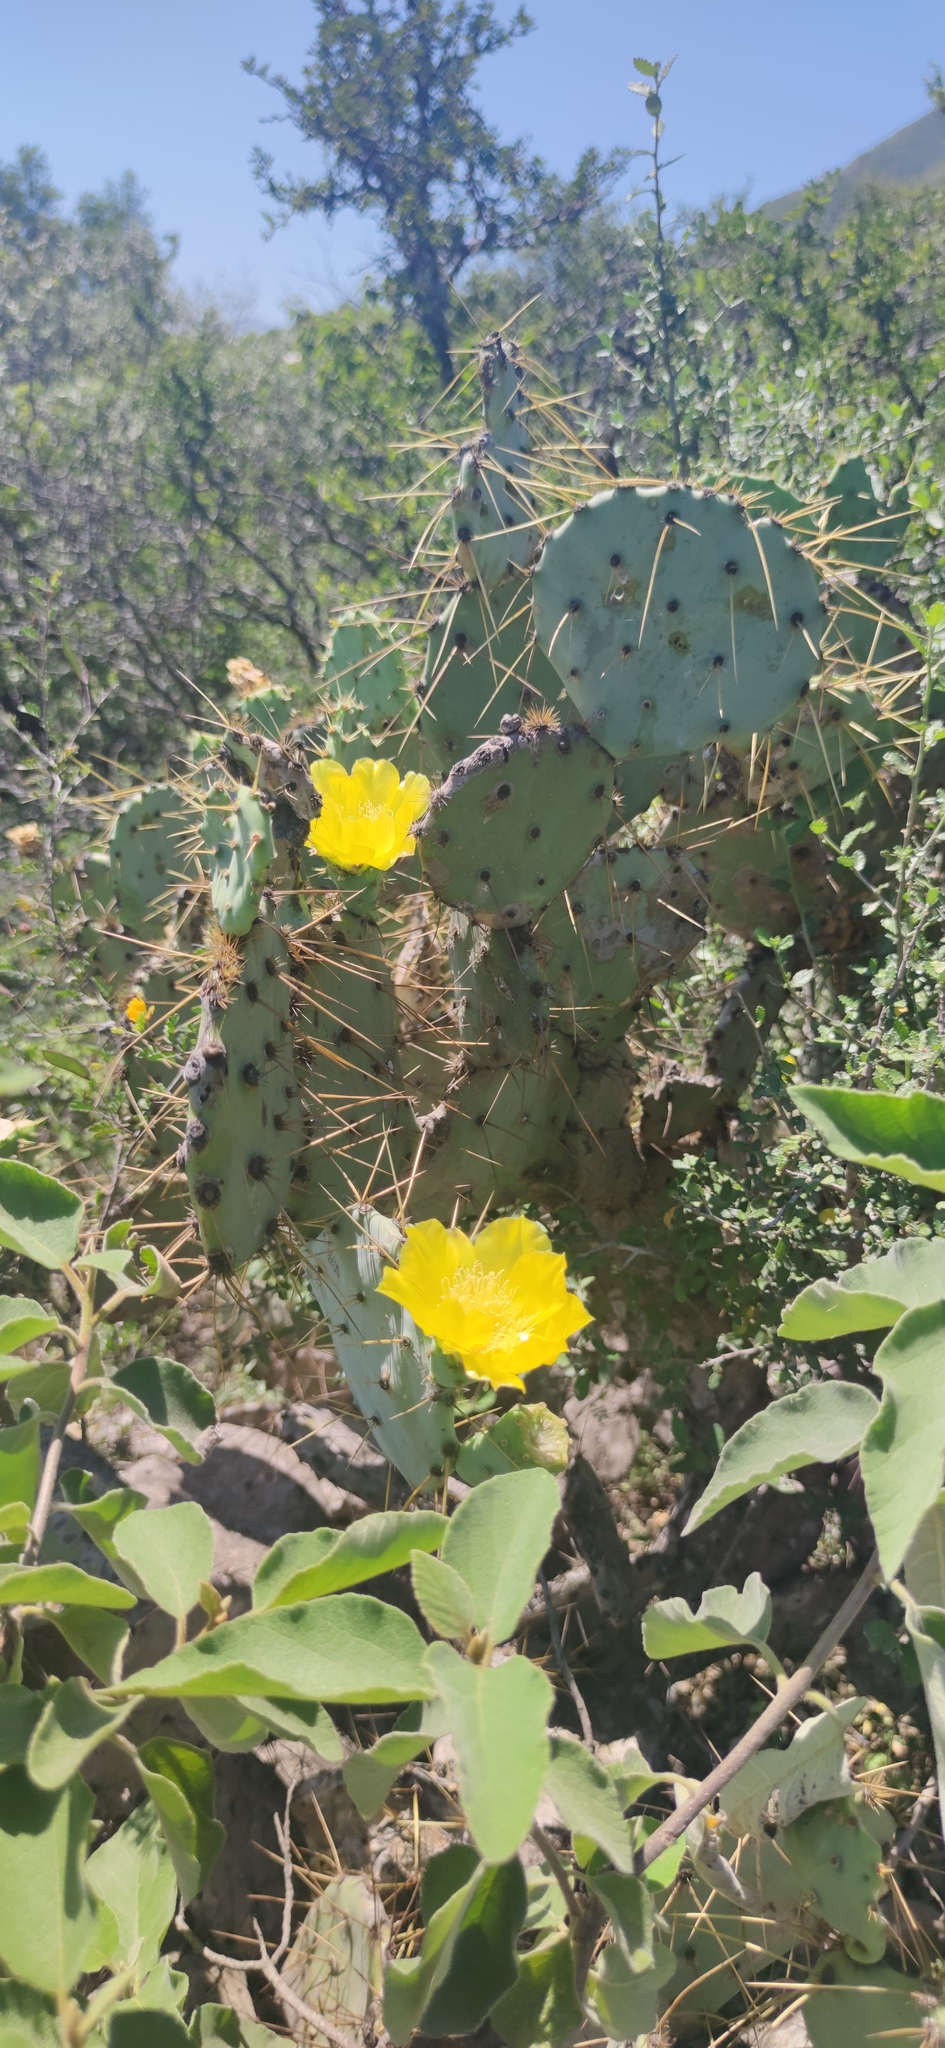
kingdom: Plantae
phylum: Tracheophyta
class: Magnoliopsida
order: Caryophyllales
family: Cactaceae
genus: Opuntia
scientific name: Opuntia engelmannii
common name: Cactus-apple
